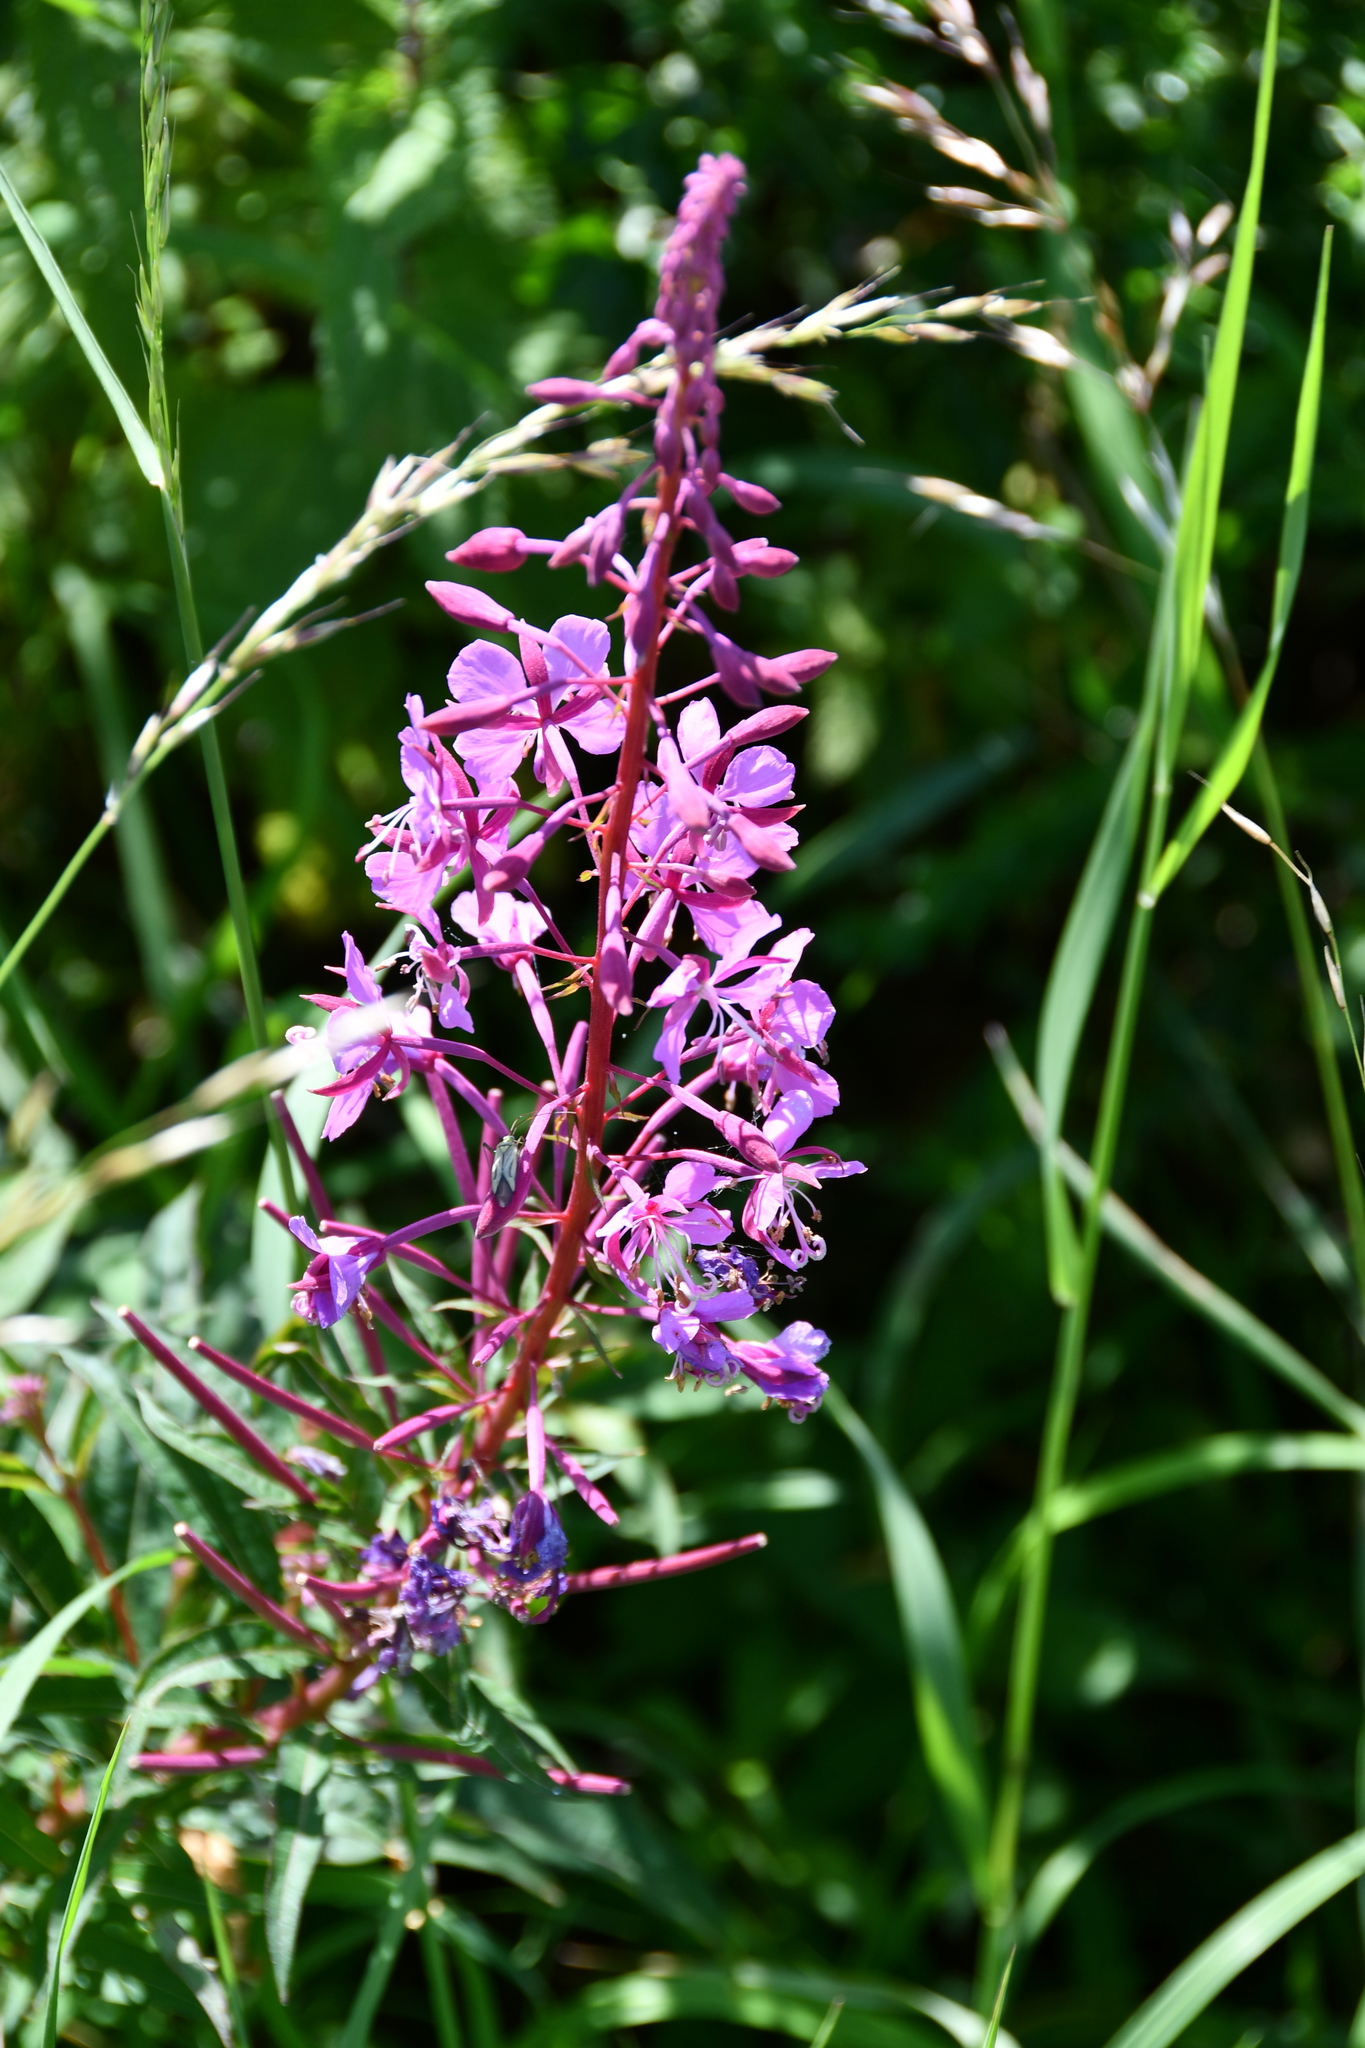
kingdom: Plantae
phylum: Tracheophyta
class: Magnoliopsida
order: Myrtales
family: Onagraceae
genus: Chamaenerion
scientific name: Chamaenerion angustifolium
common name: Fireweed
